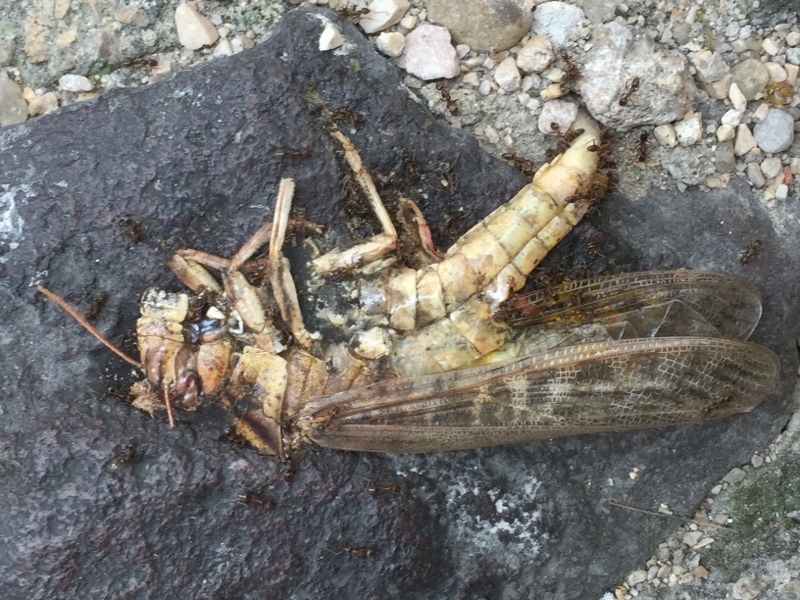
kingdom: Animalia
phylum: Arthropoda
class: Insecta
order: Orthoptera
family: Acrididae
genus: Locusta
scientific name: Locusta migratoria
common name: Migratory locust
